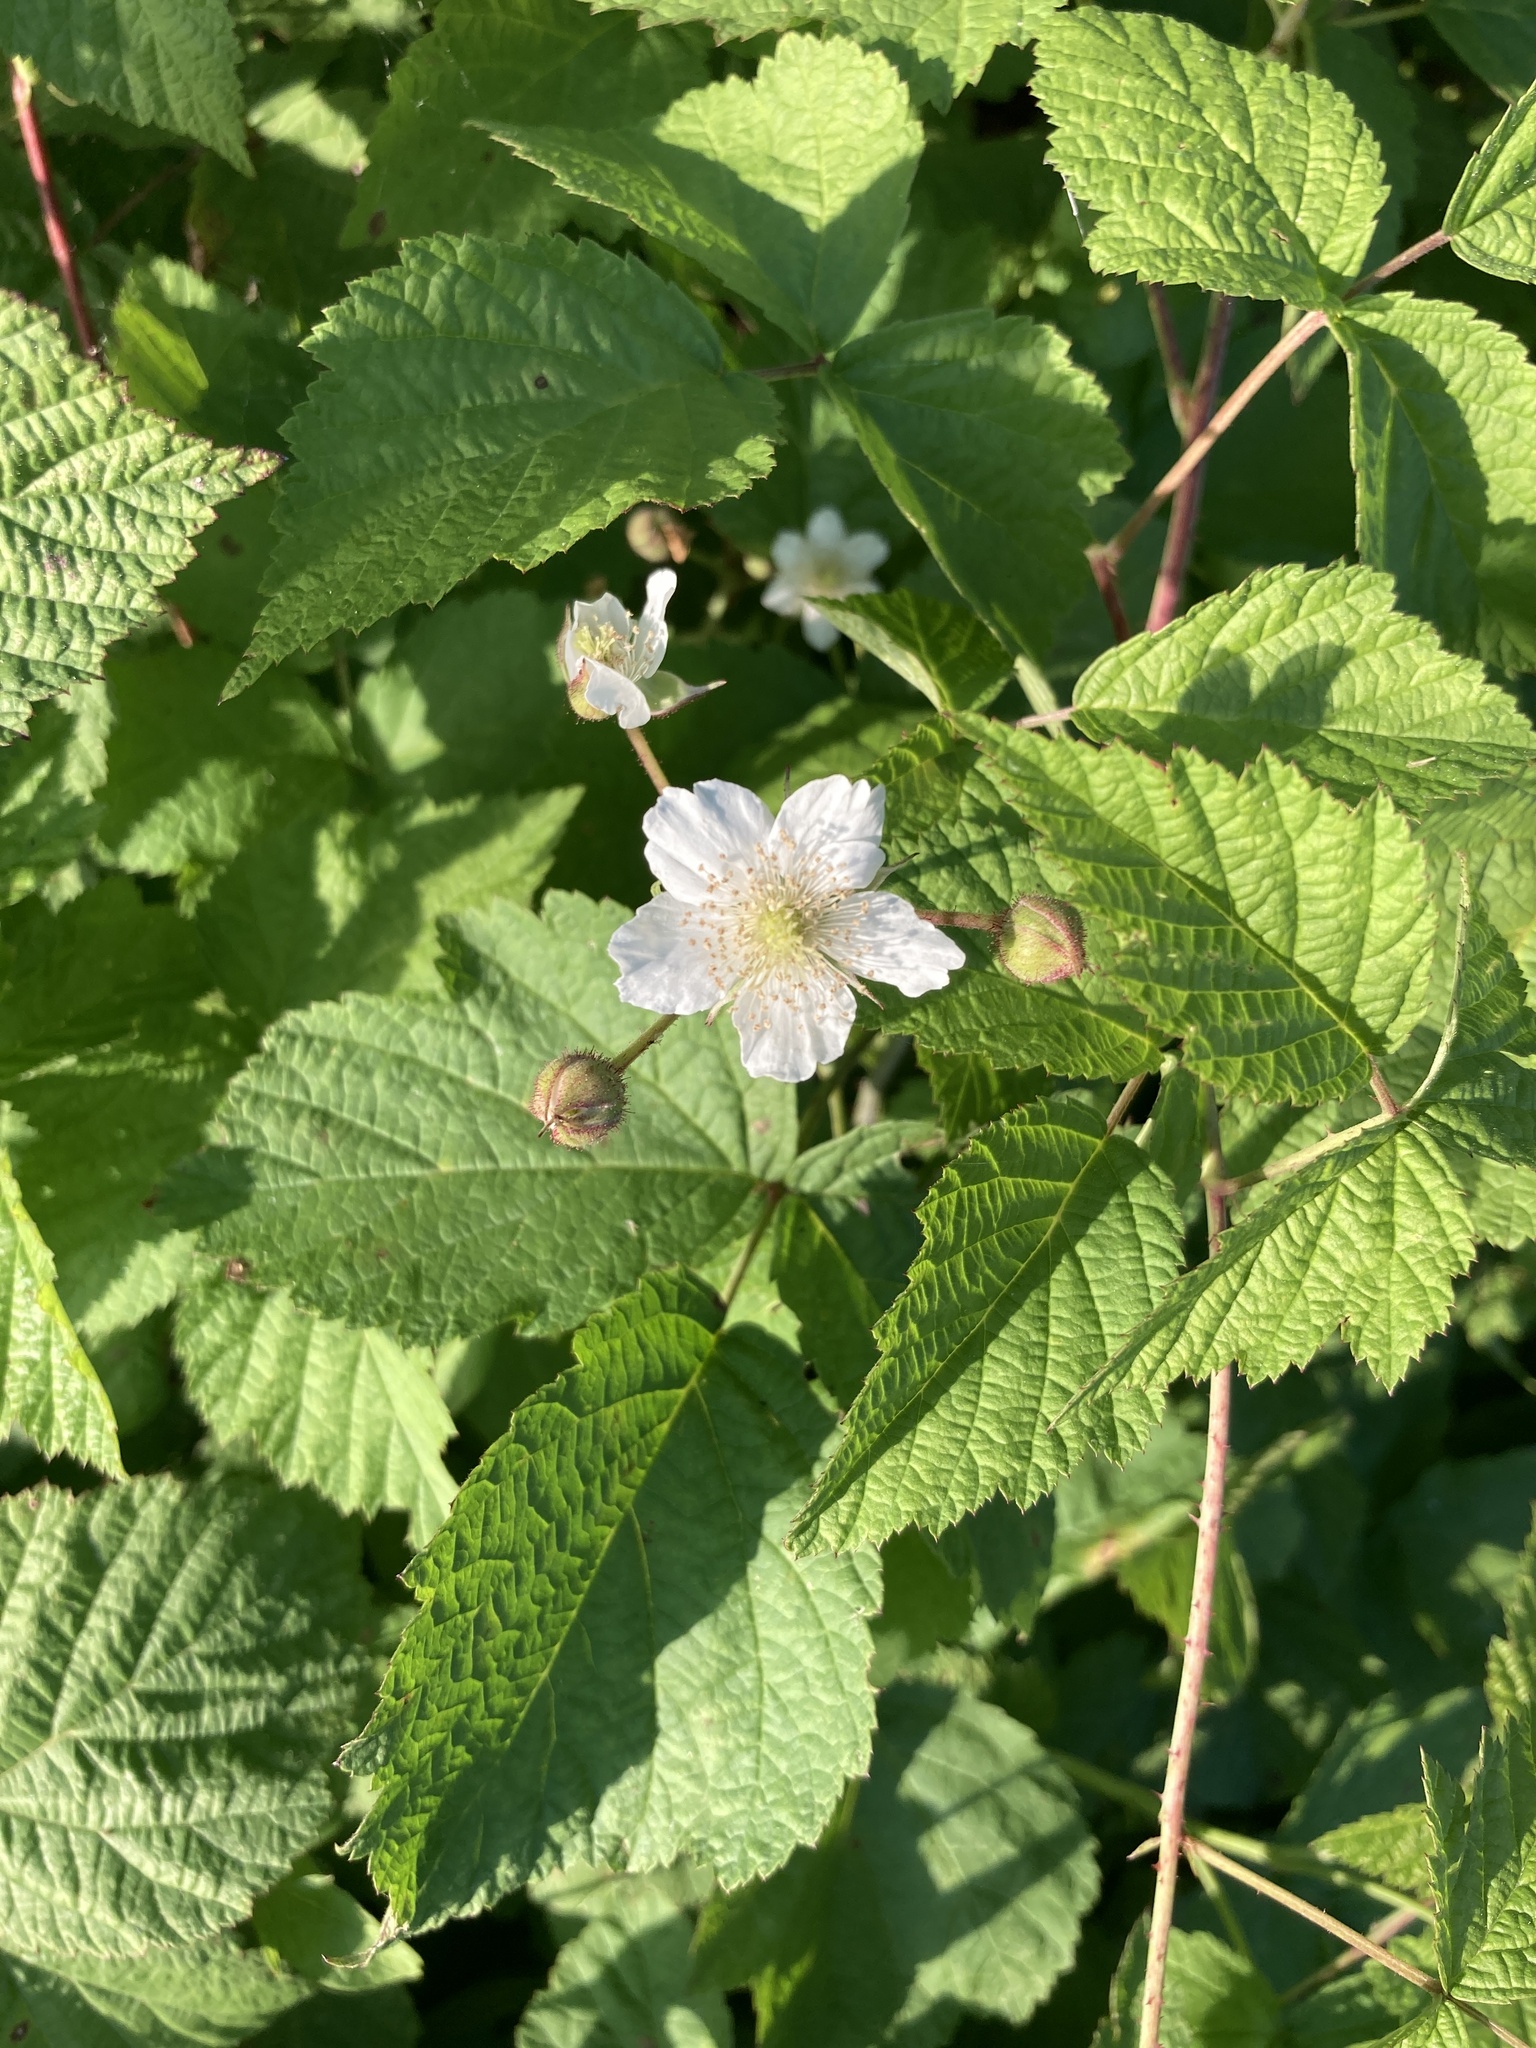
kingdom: Plantae
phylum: Tracheophyta
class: Magnoliopsida
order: Rosales
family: Rosaceae
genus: Rubus
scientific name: Rubus caesius
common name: Dewberry
